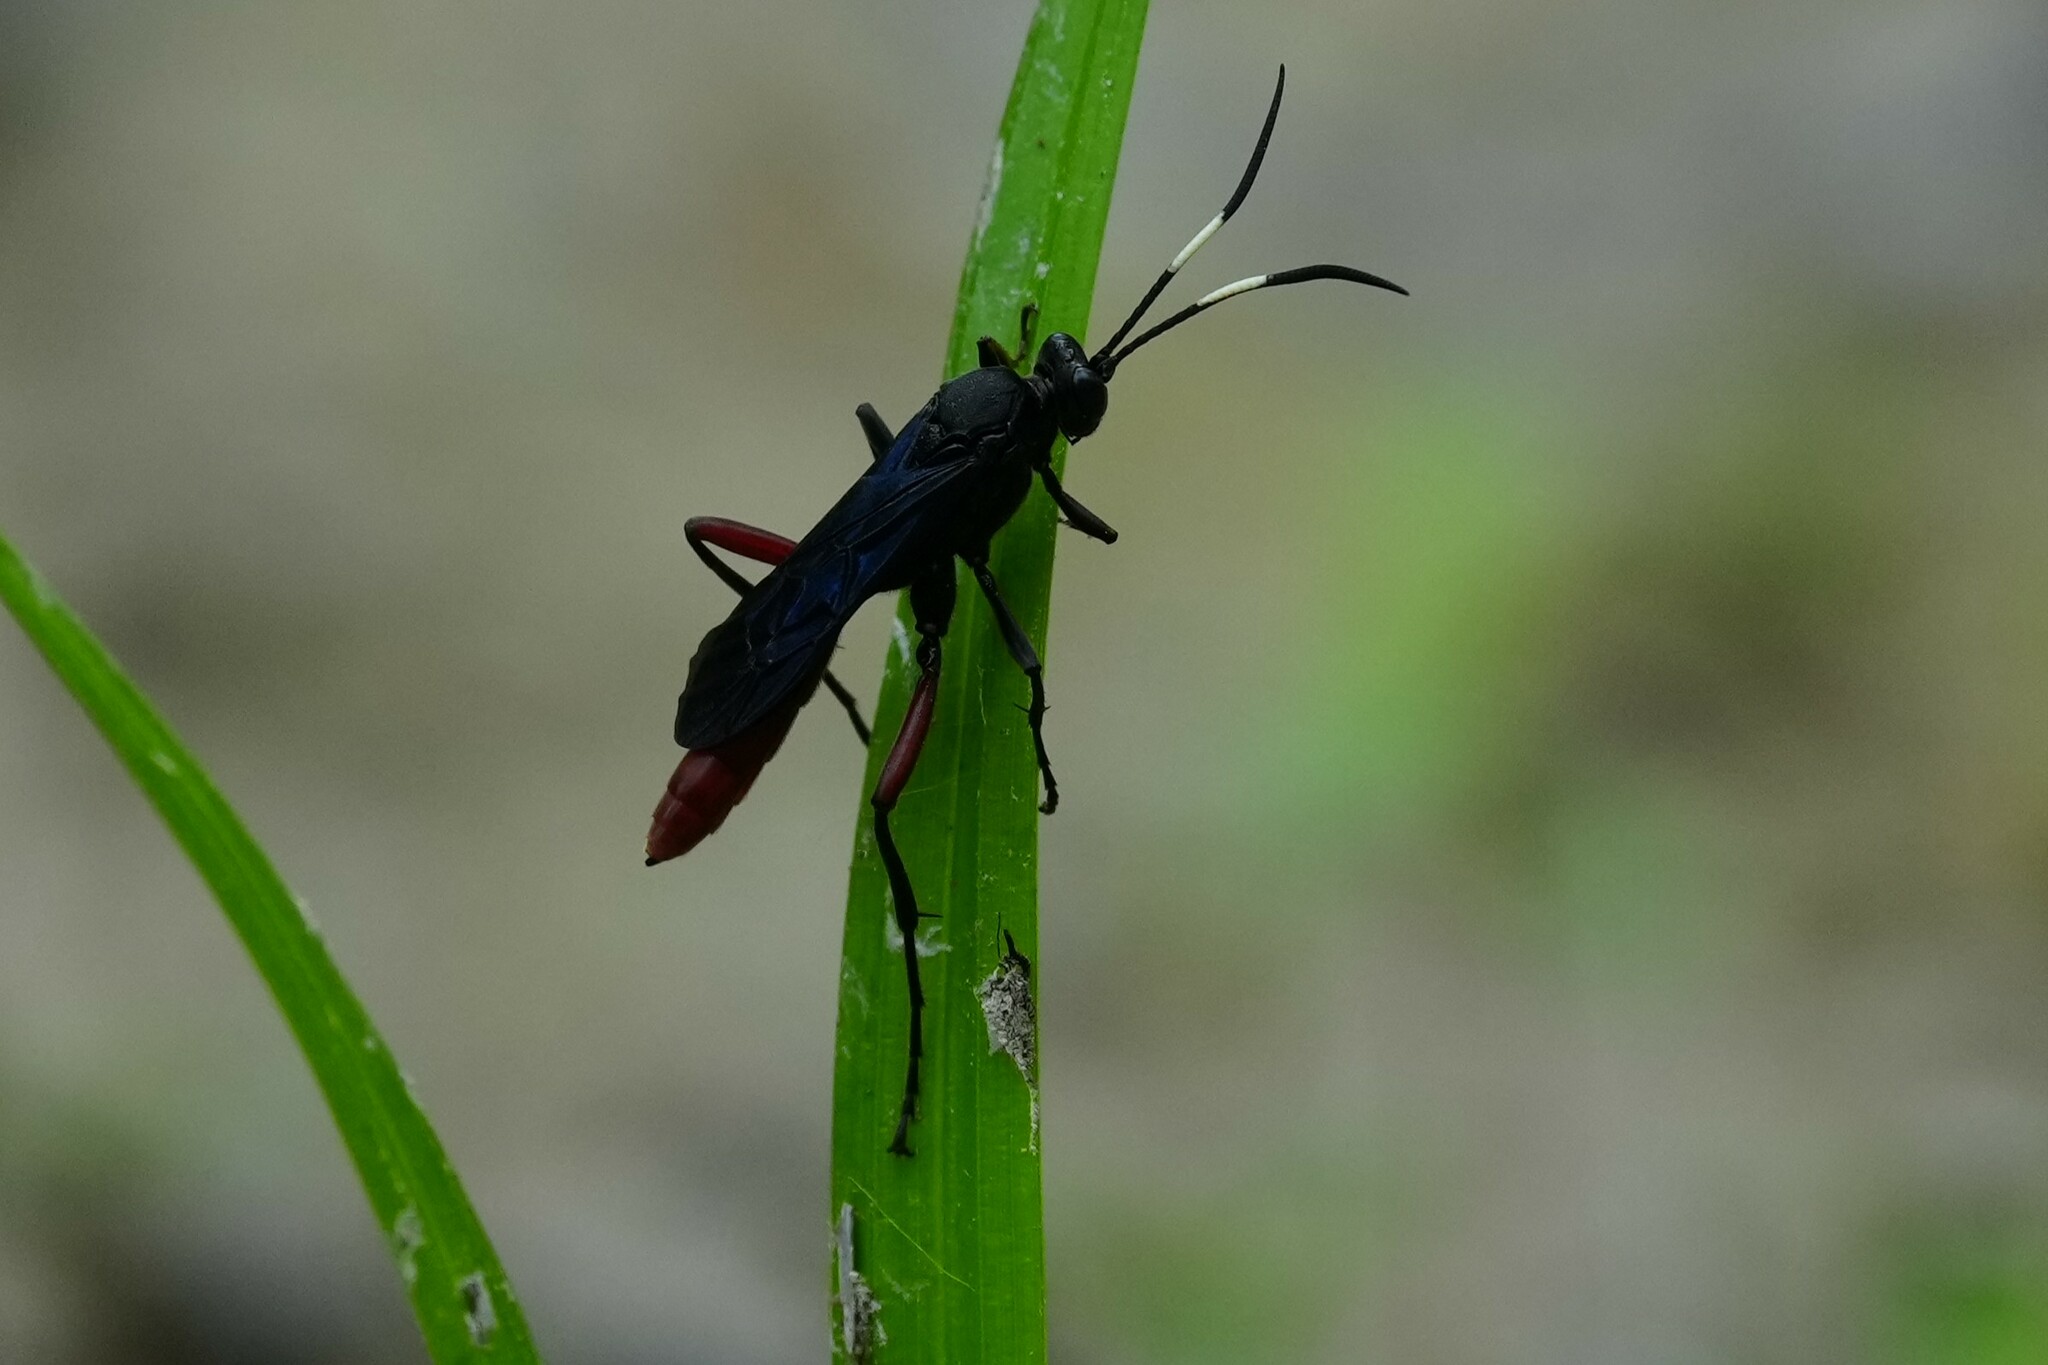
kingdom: Animalia
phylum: Arthropoda
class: Insecta
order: Hymenoptera
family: Ichneumonidae
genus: Limonethe
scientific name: Limonethe maurator
